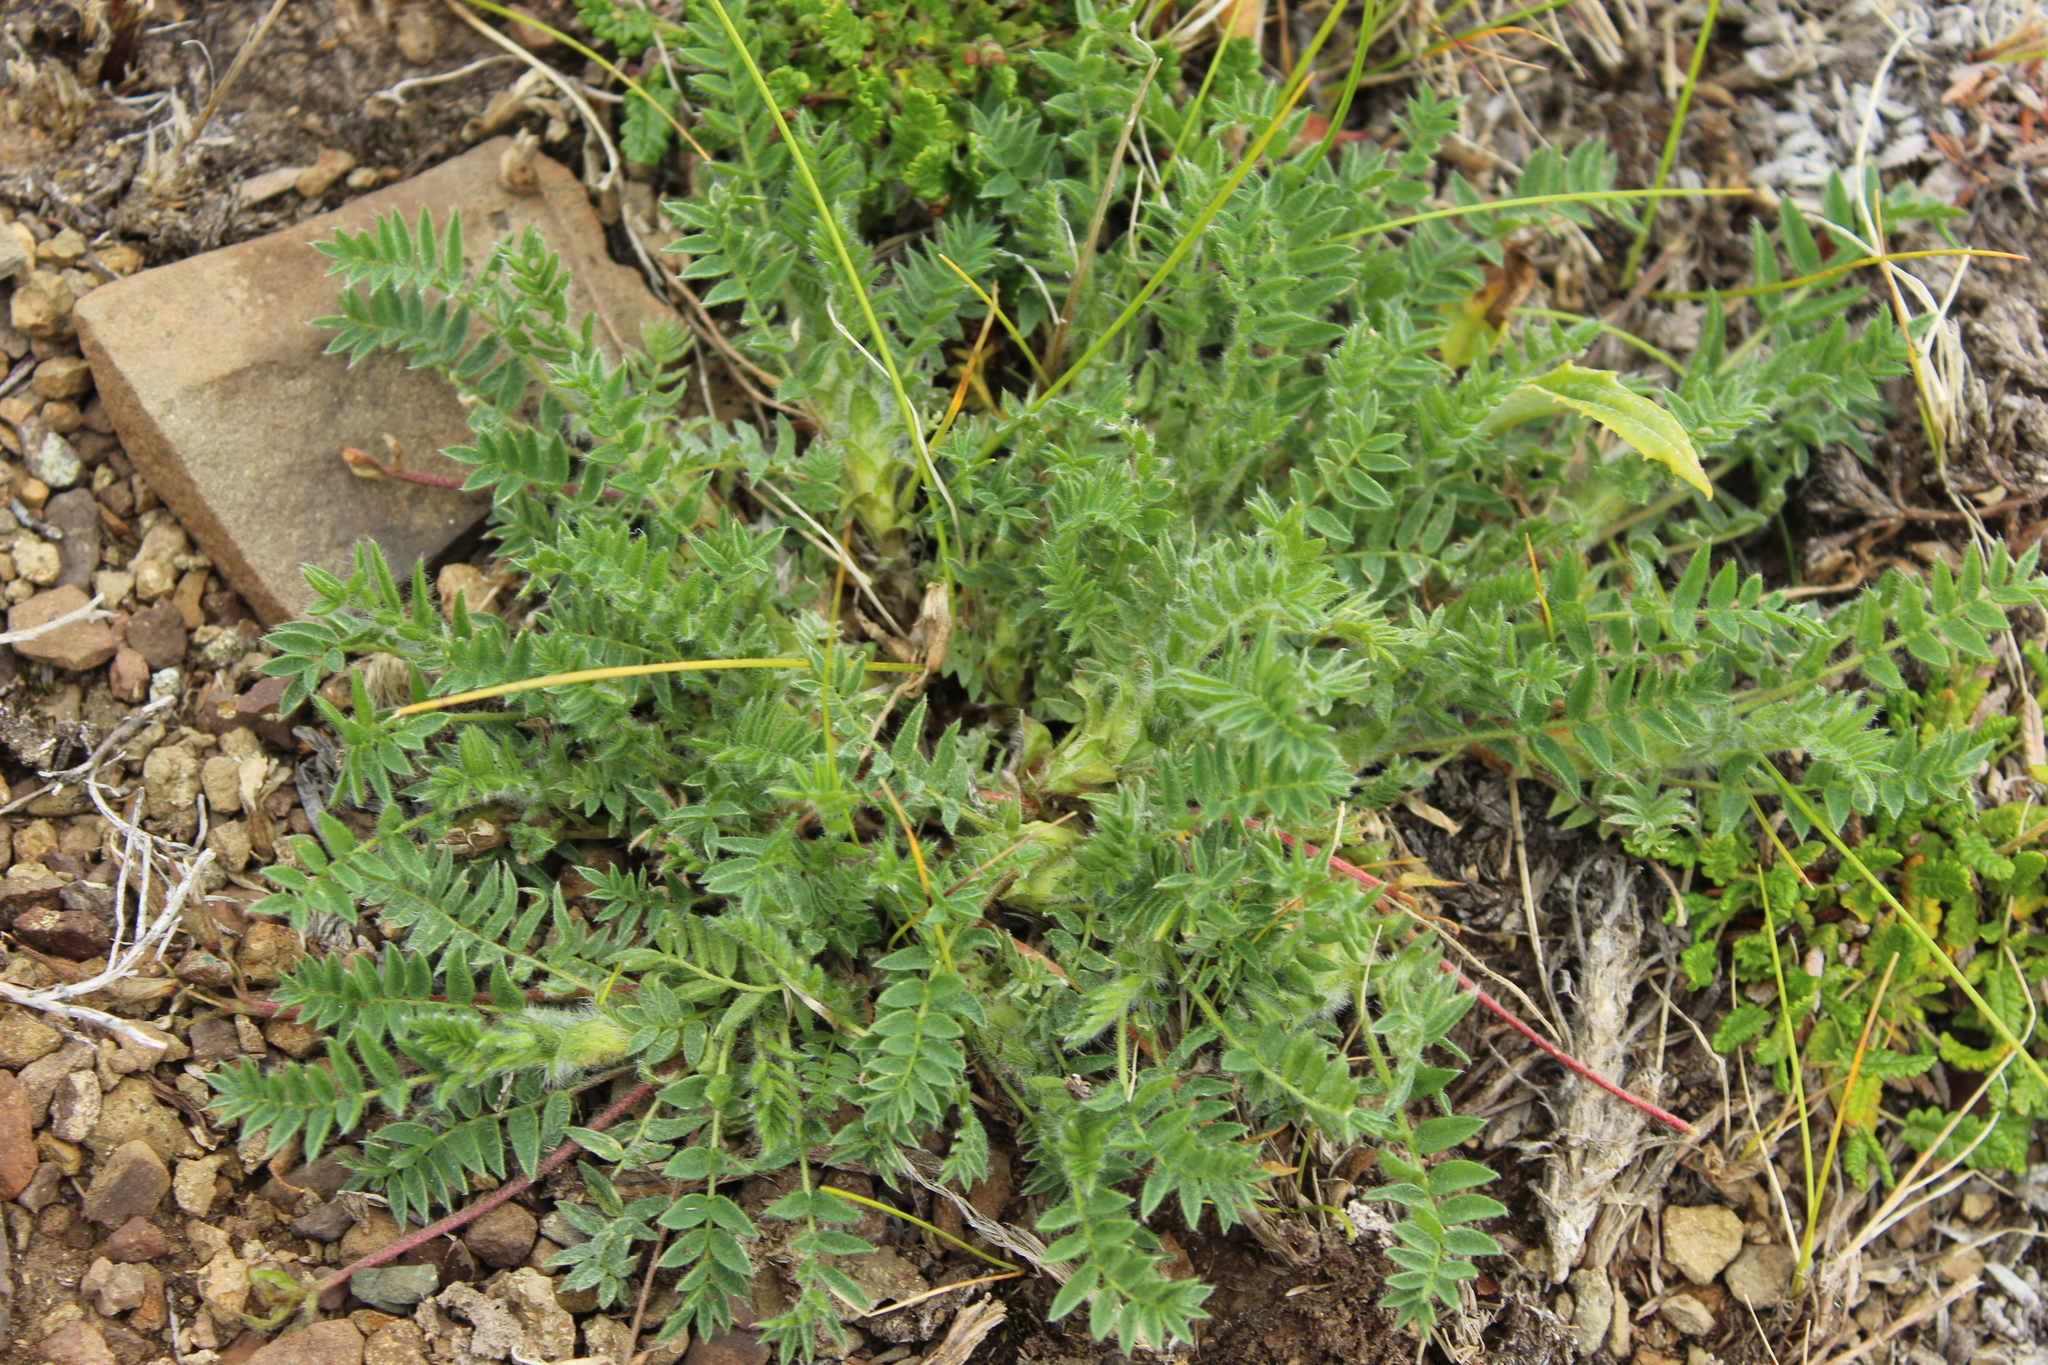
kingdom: Plantae
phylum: Tracheophyta
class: Magnoliopsida
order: Fabales
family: Fabaceae
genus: Oxytropis
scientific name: Oxytropis nigrescens
